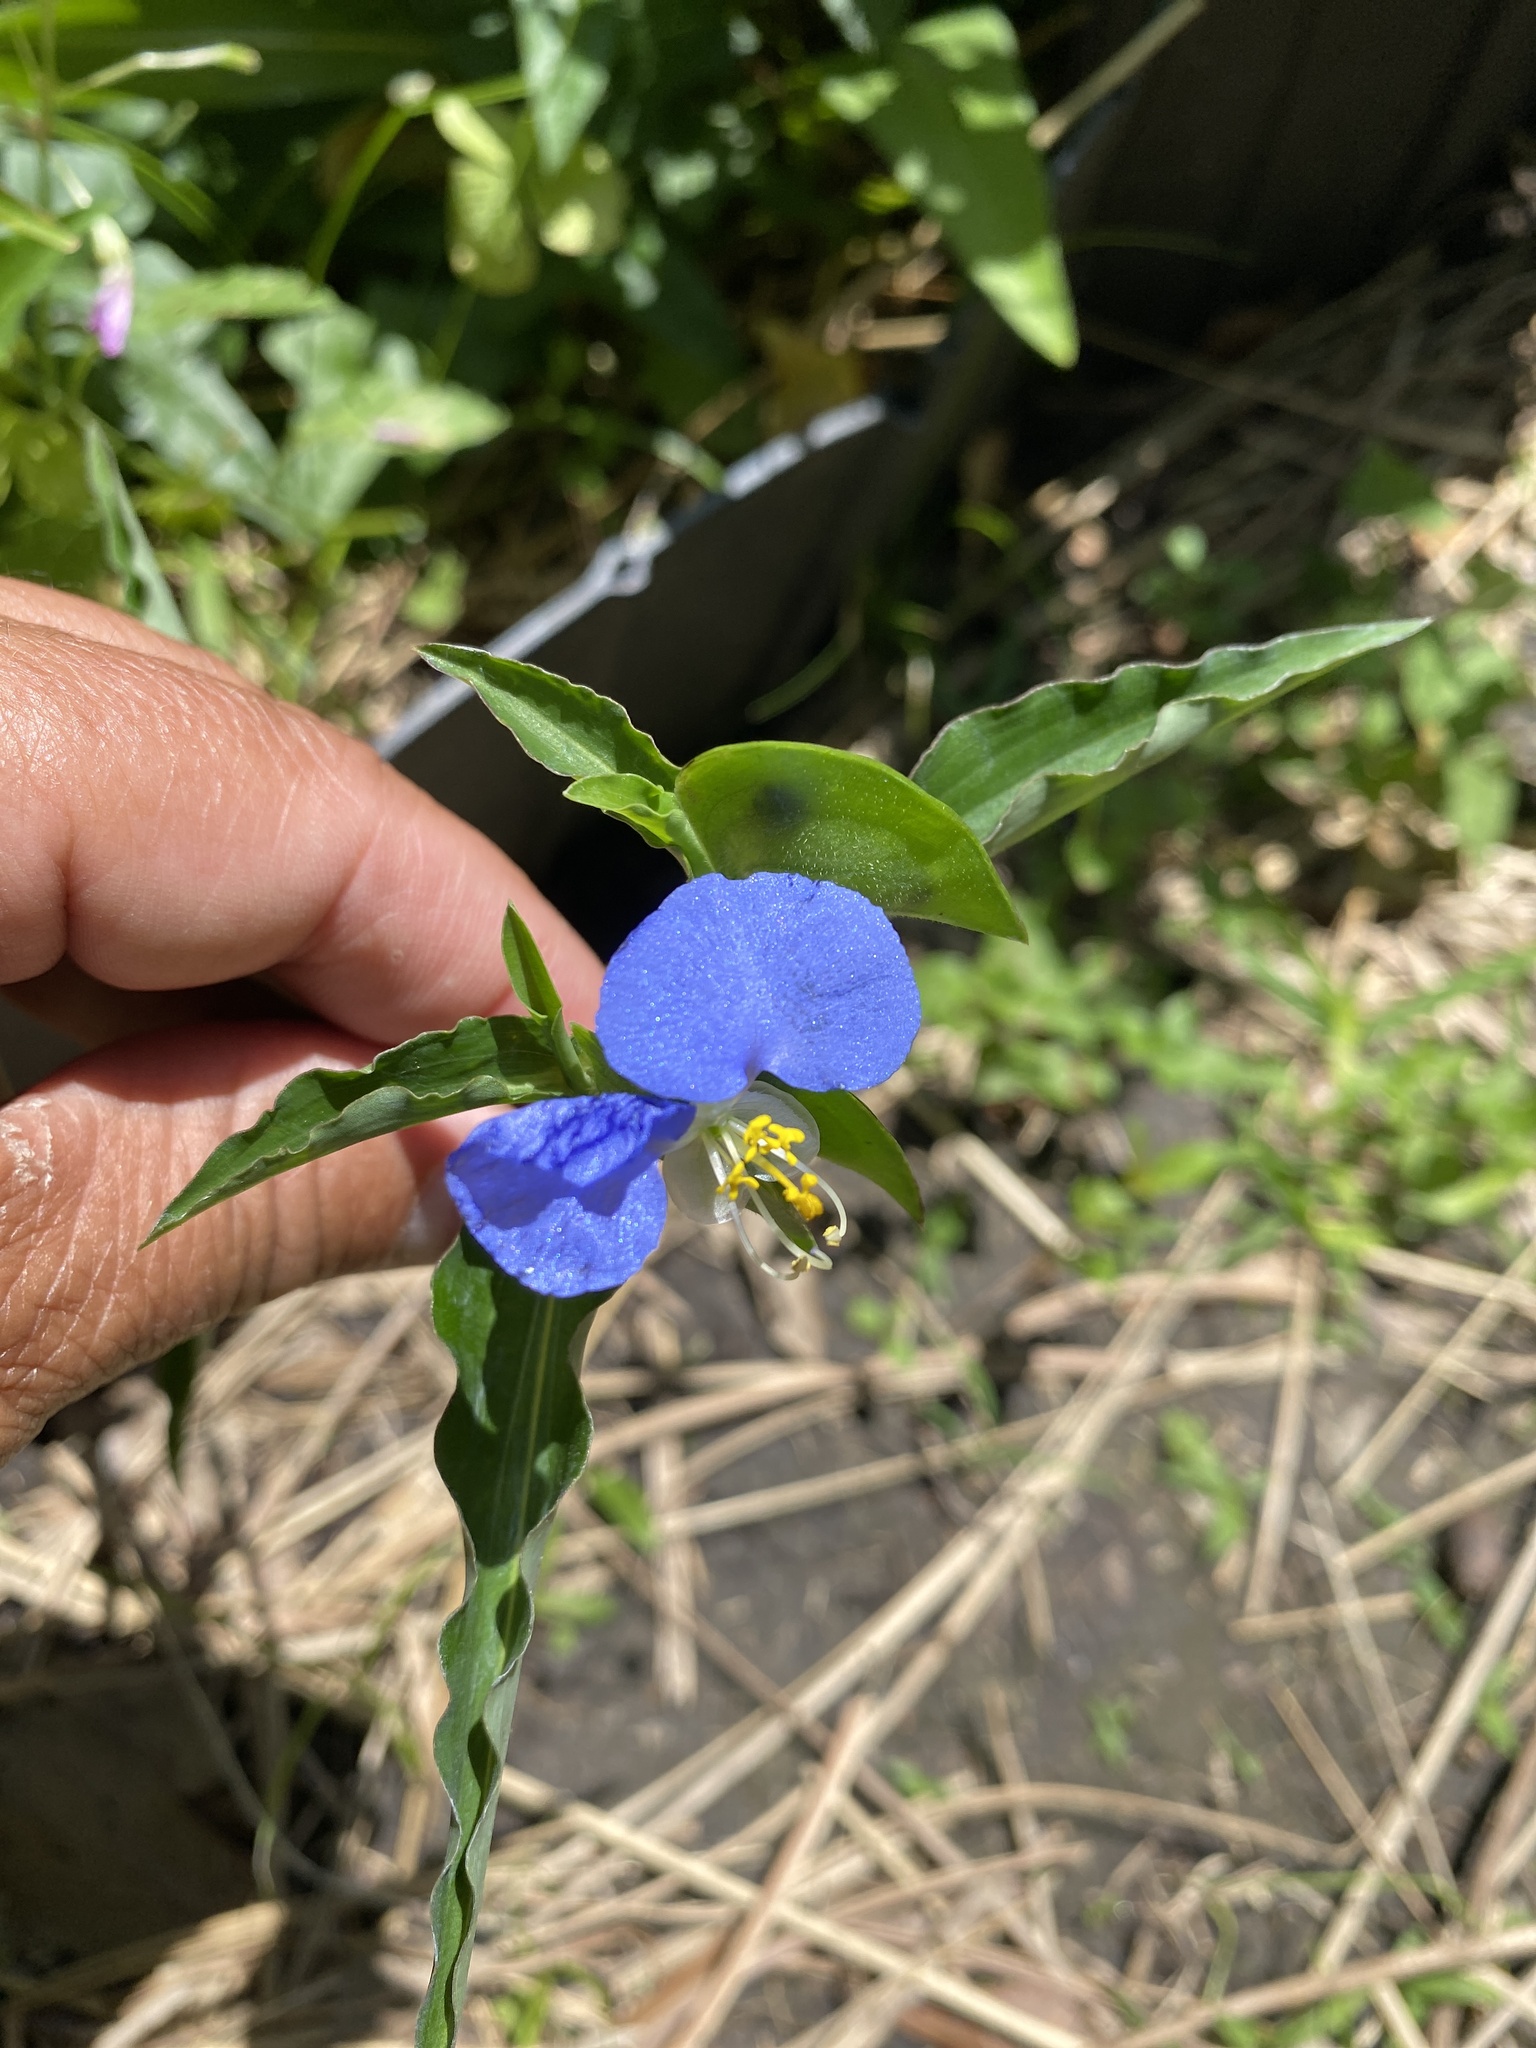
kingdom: Plantae
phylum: Tracheophyta
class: Liliopsida
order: Commelinales
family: Commelinaceae
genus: Commelina
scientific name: Commelina erecta
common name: Blousel blommetjie
